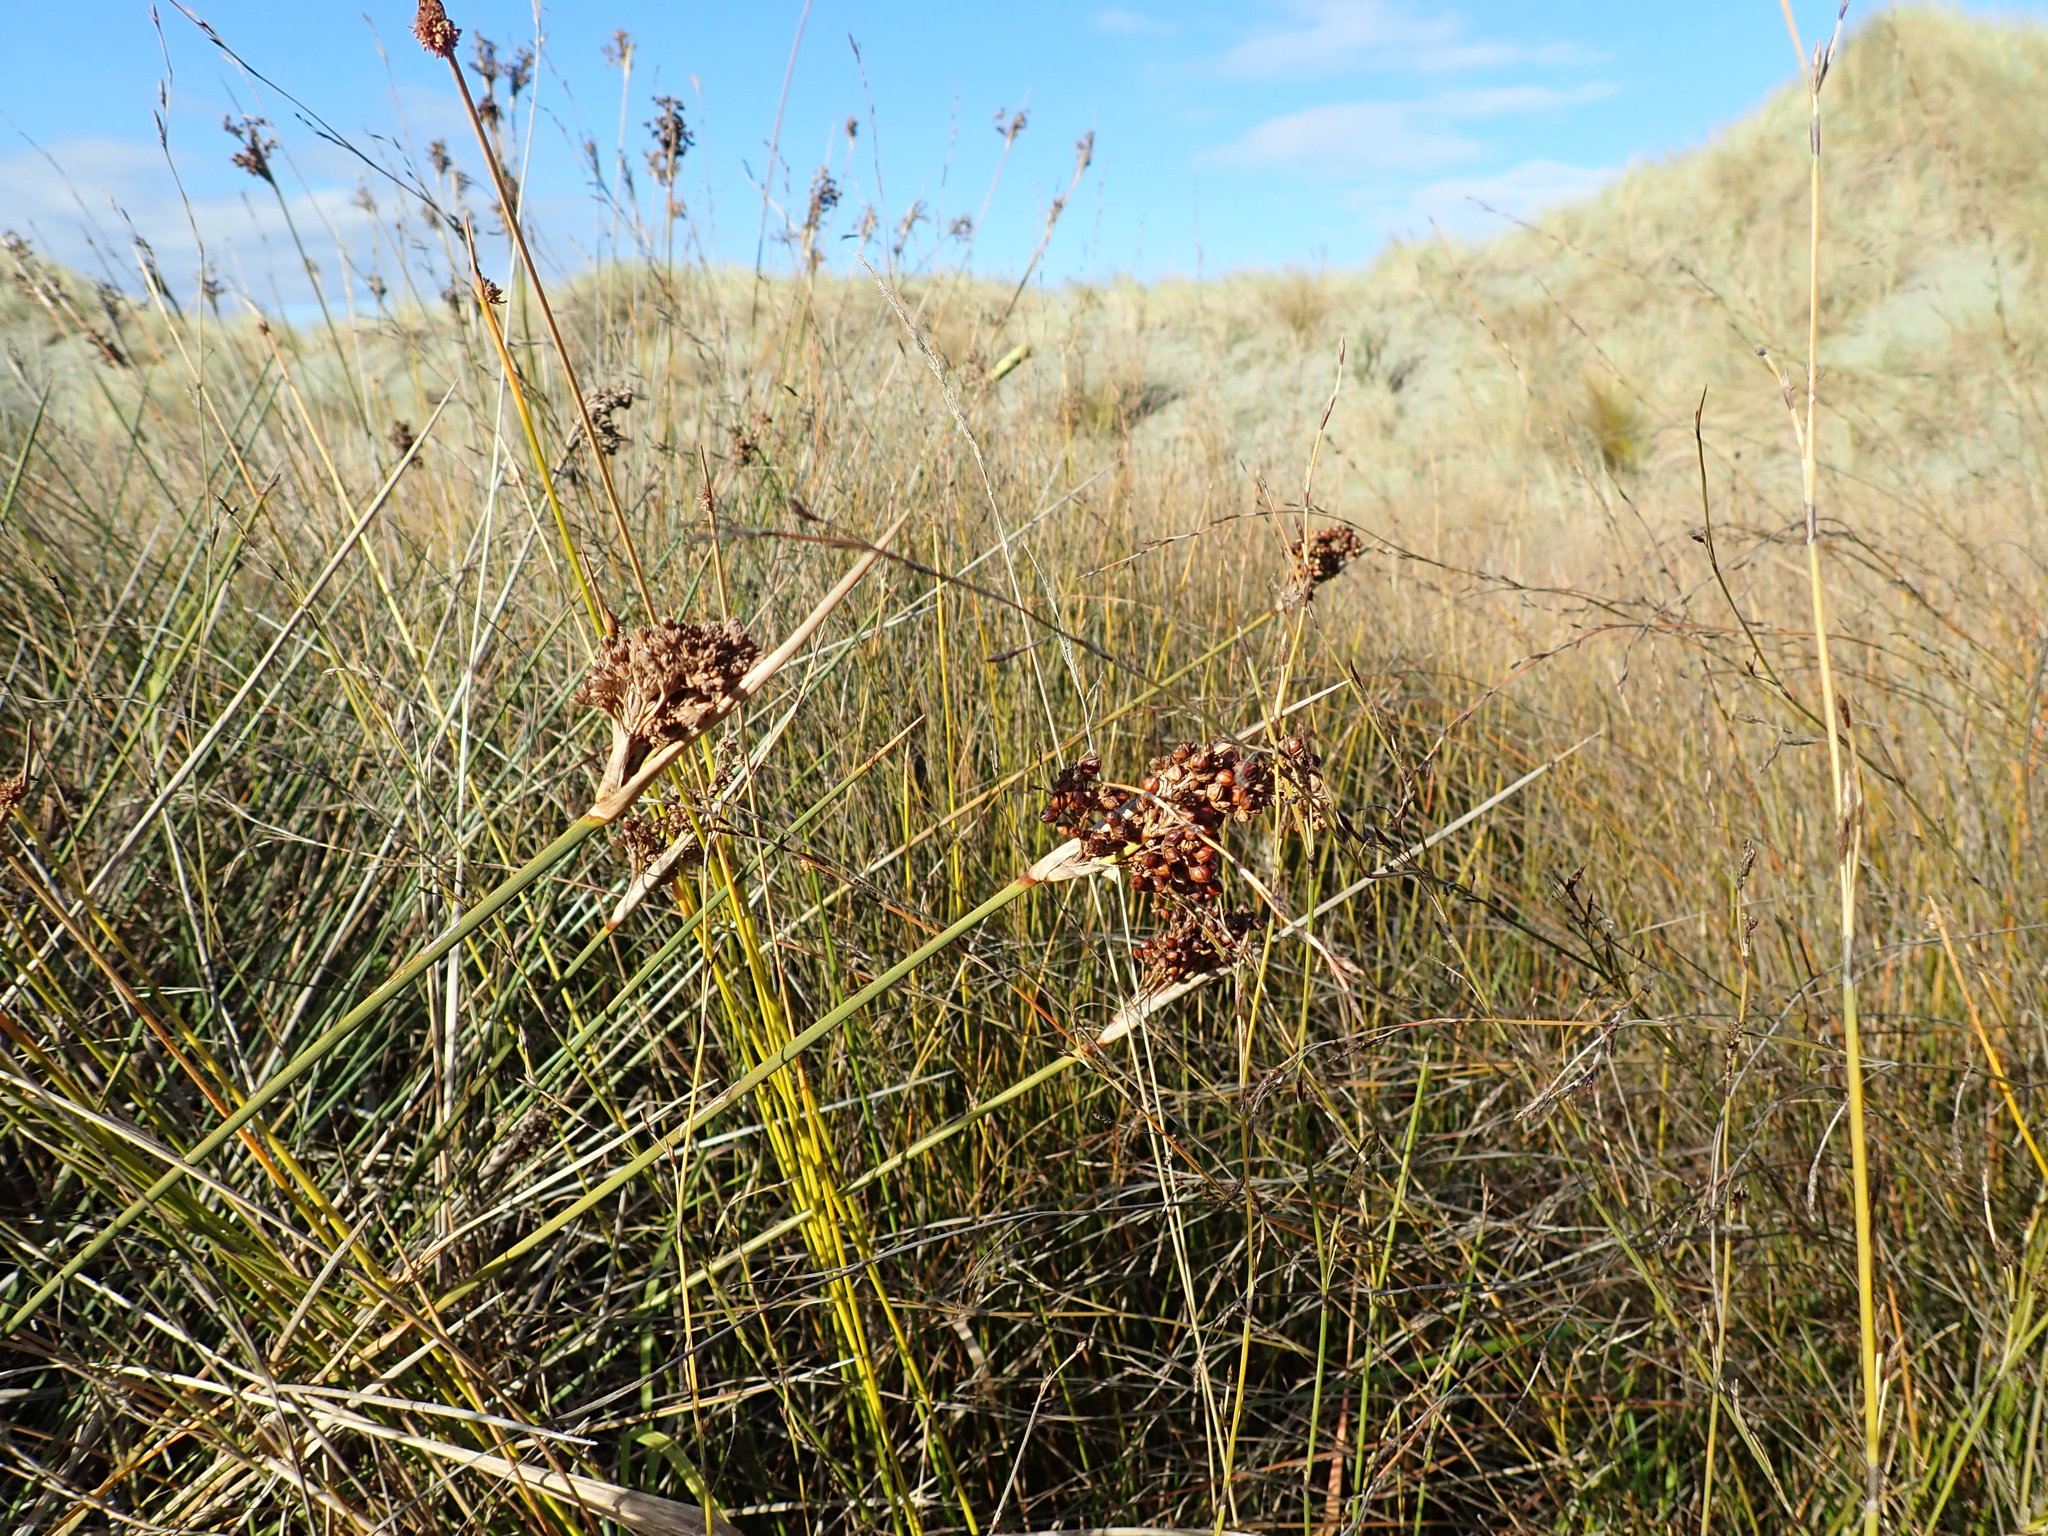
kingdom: Plantae
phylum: Tracheophyta
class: Liliopsida
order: Poales
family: Juncaceae
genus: Juncus
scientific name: Juncus acutus
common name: Sharp rush
